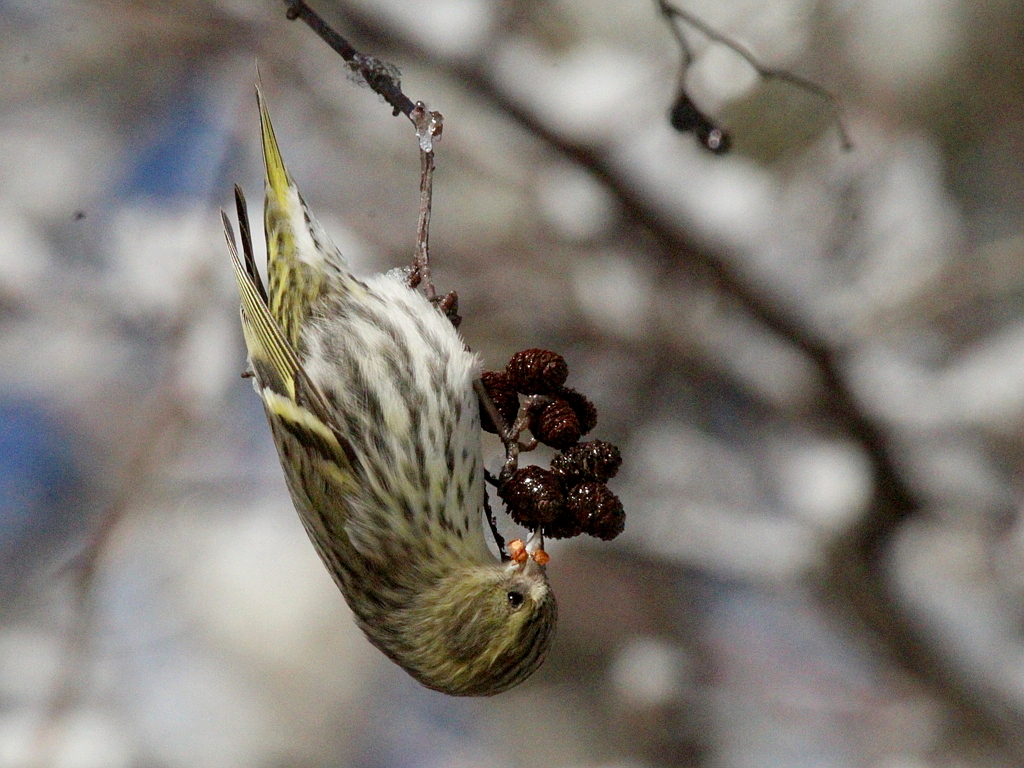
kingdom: Animalia
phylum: Chordata
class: Aves
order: Passeriformes
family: Fringillidae
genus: Spinus
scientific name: Spinus spinus
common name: Eurasian siskin
